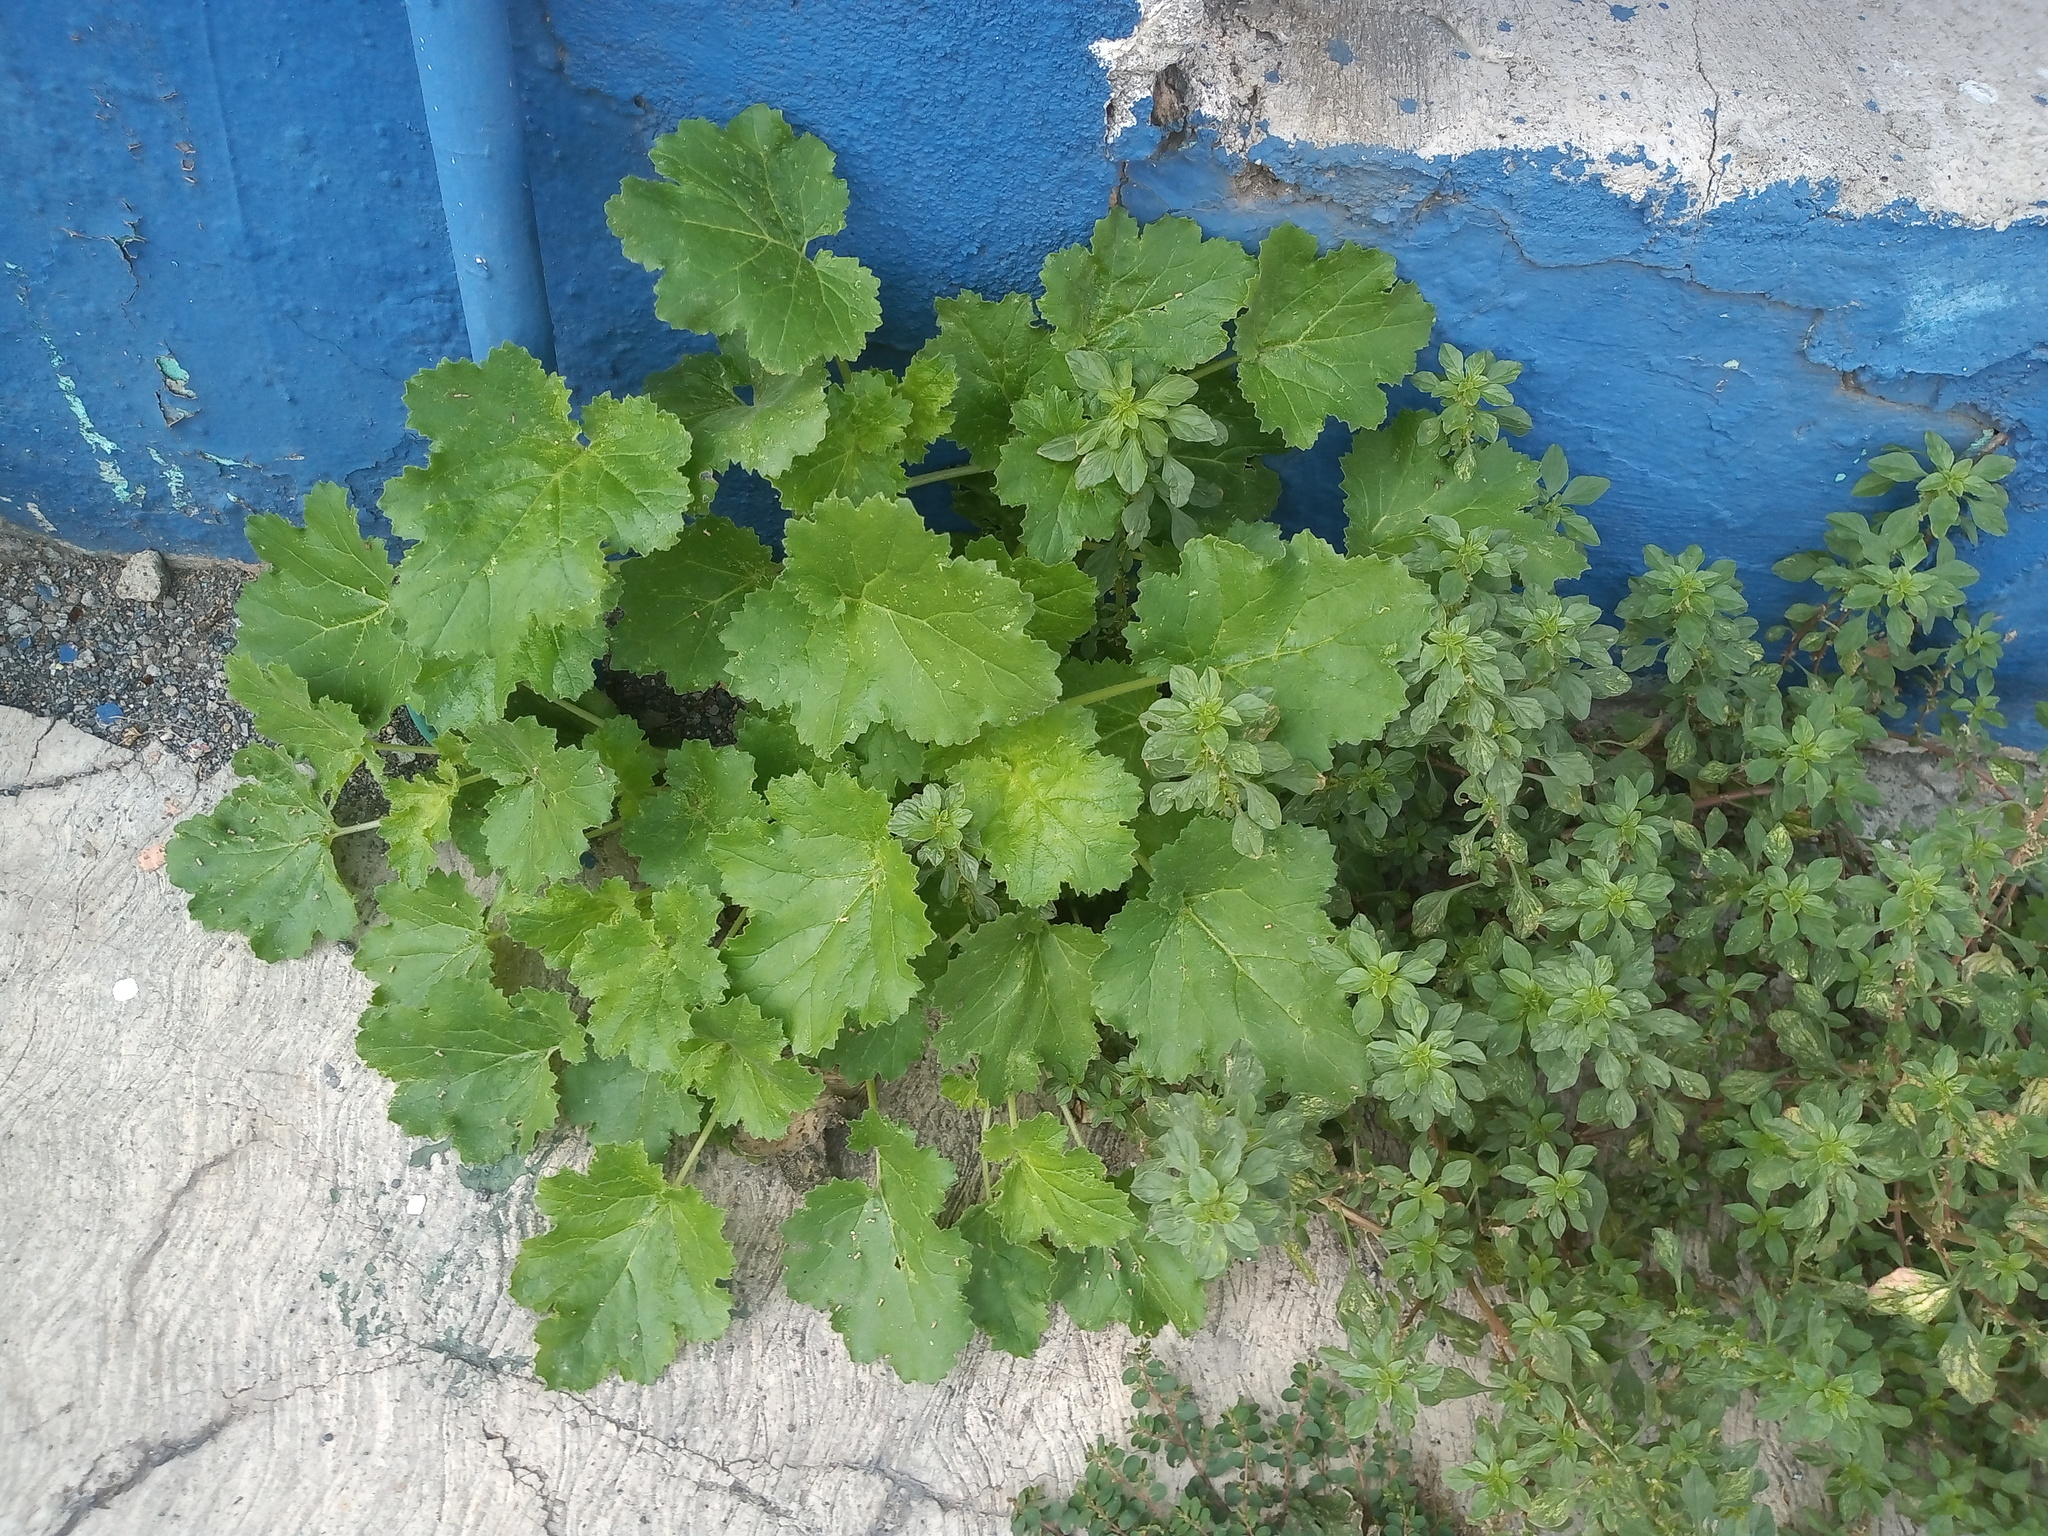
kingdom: Plantae
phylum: Tracheophyta
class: Magnoliopsida
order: Cornales
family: Loasaceae
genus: Eucnide
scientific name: Eucnide lobata
